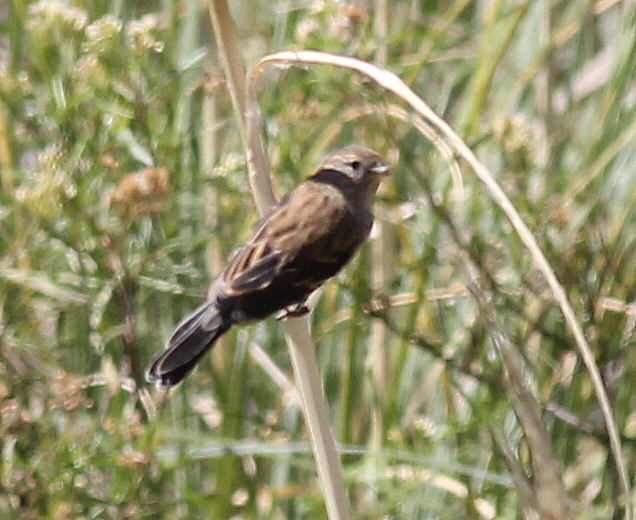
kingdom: Animalia
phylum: Chordata
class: Aves
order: Passeriformes
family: Thraupidae
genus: Catamenia
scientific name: Catamenia analis
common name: Band-tailed seedeater
